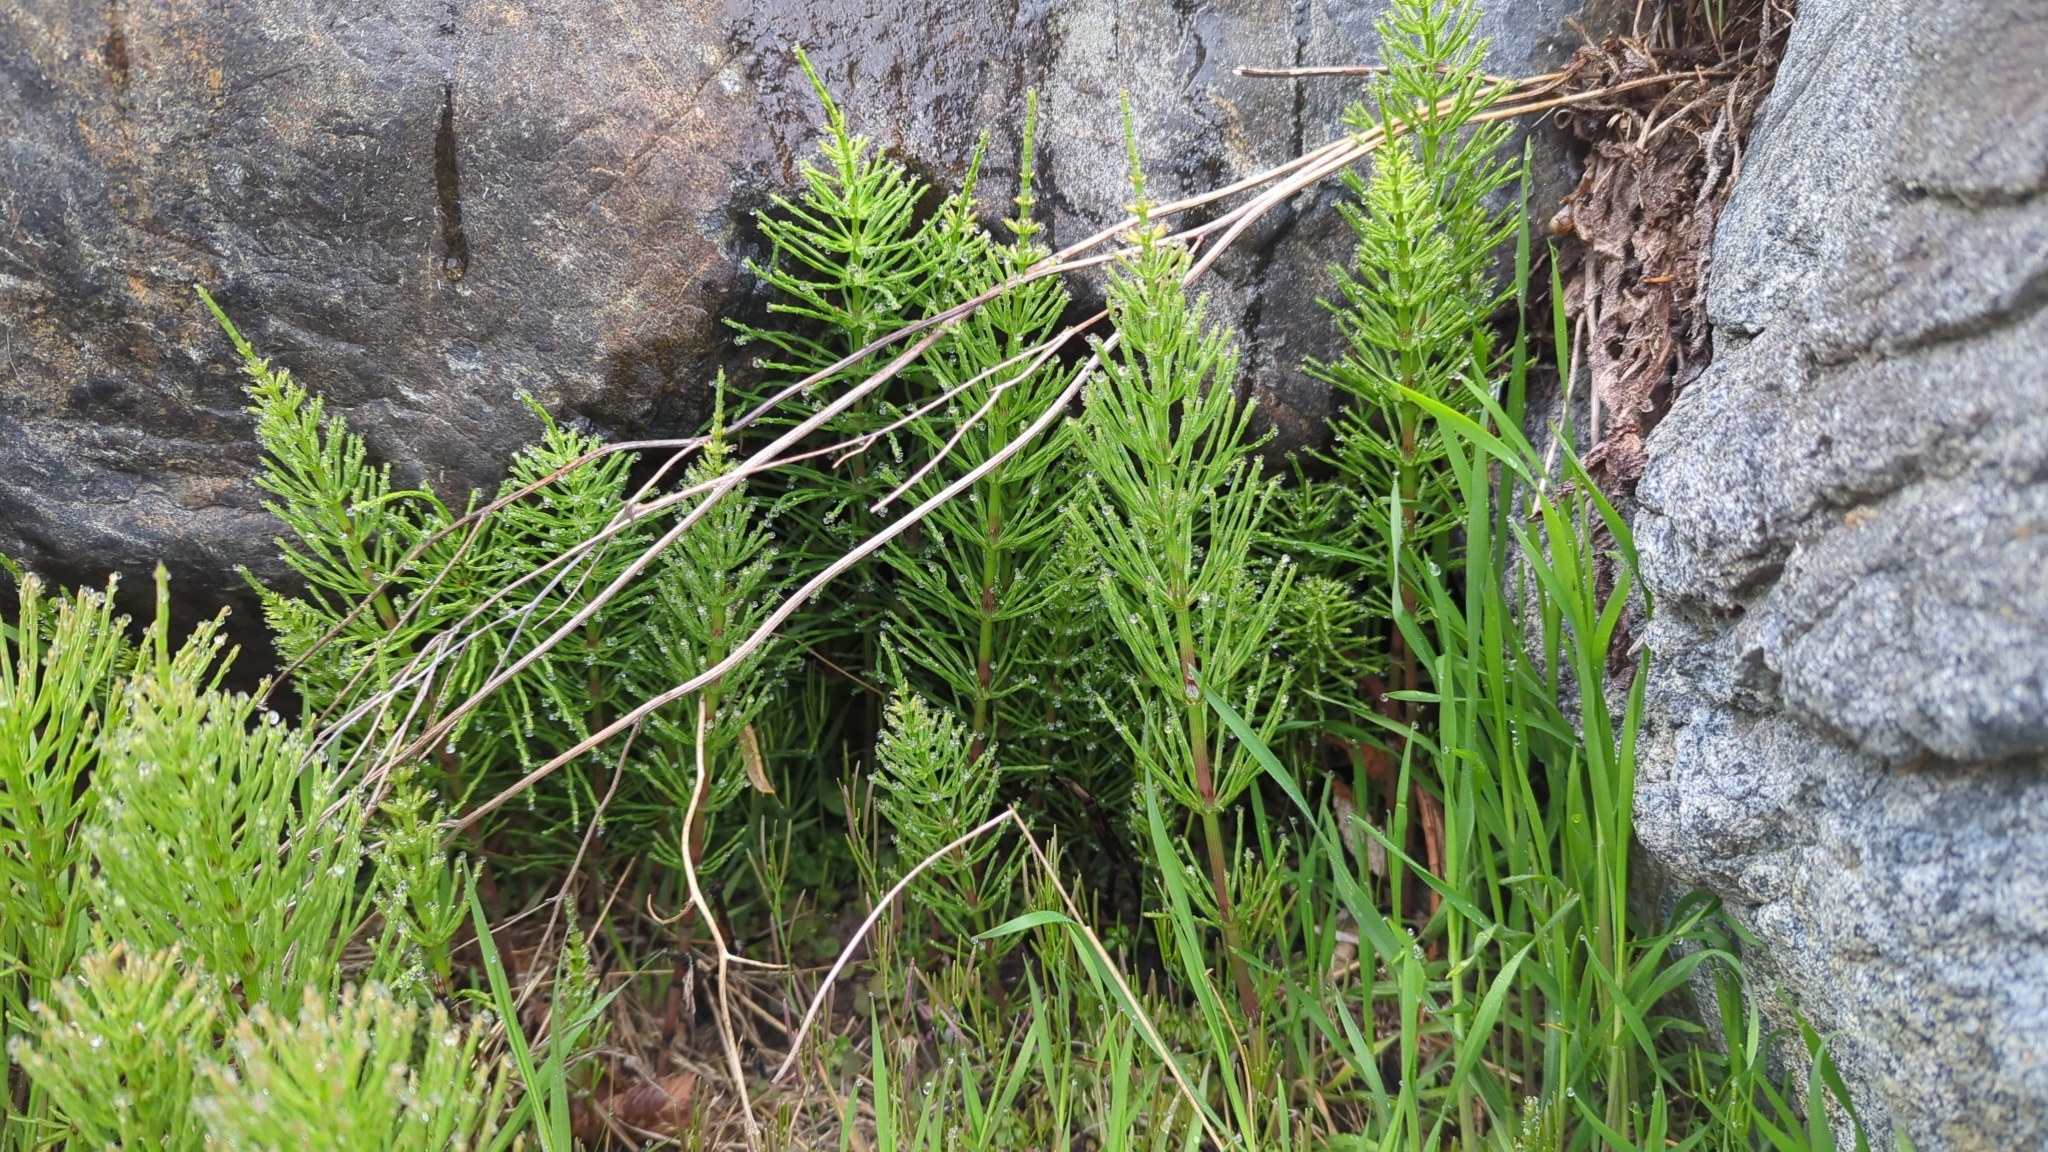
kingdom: Plantae
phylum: Tracheophyta
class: Polypodiopsida
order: Equisetales
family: Equisetaceae
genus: Equisetum
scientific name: Equisetum arvense
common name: Field horsetail
